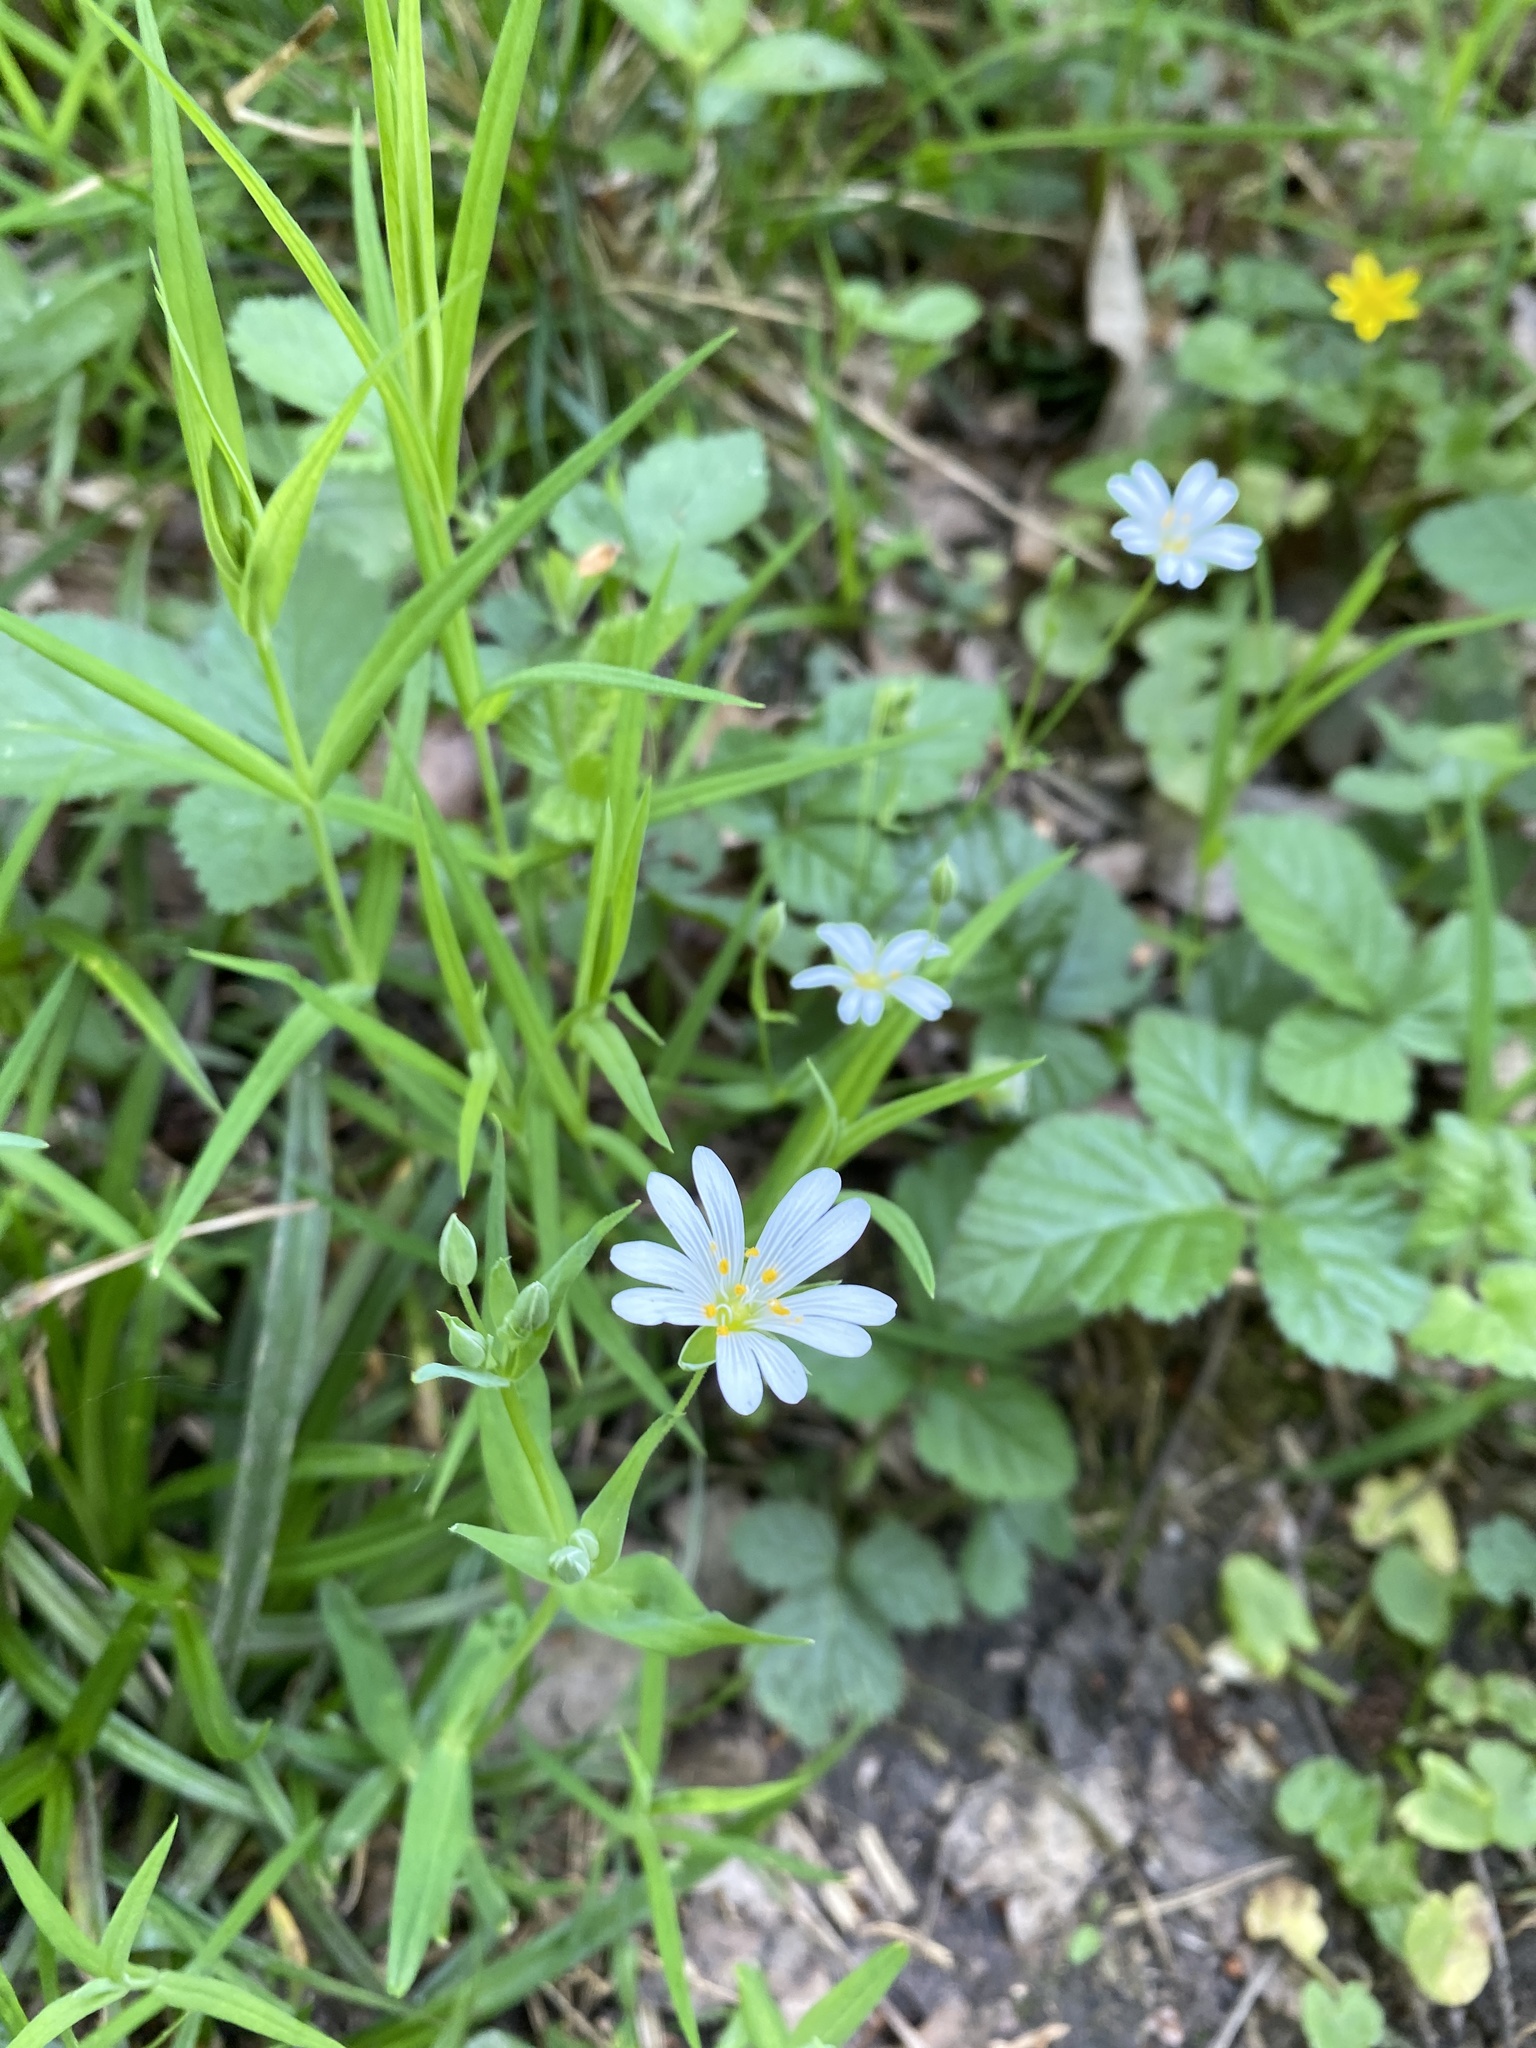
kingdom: Plantae
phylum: Tracheophyta
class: Magnoliopsida
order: Caryophyllales
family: Caryophyllaceae
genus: Rabelera
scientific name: Rabelera holostea
